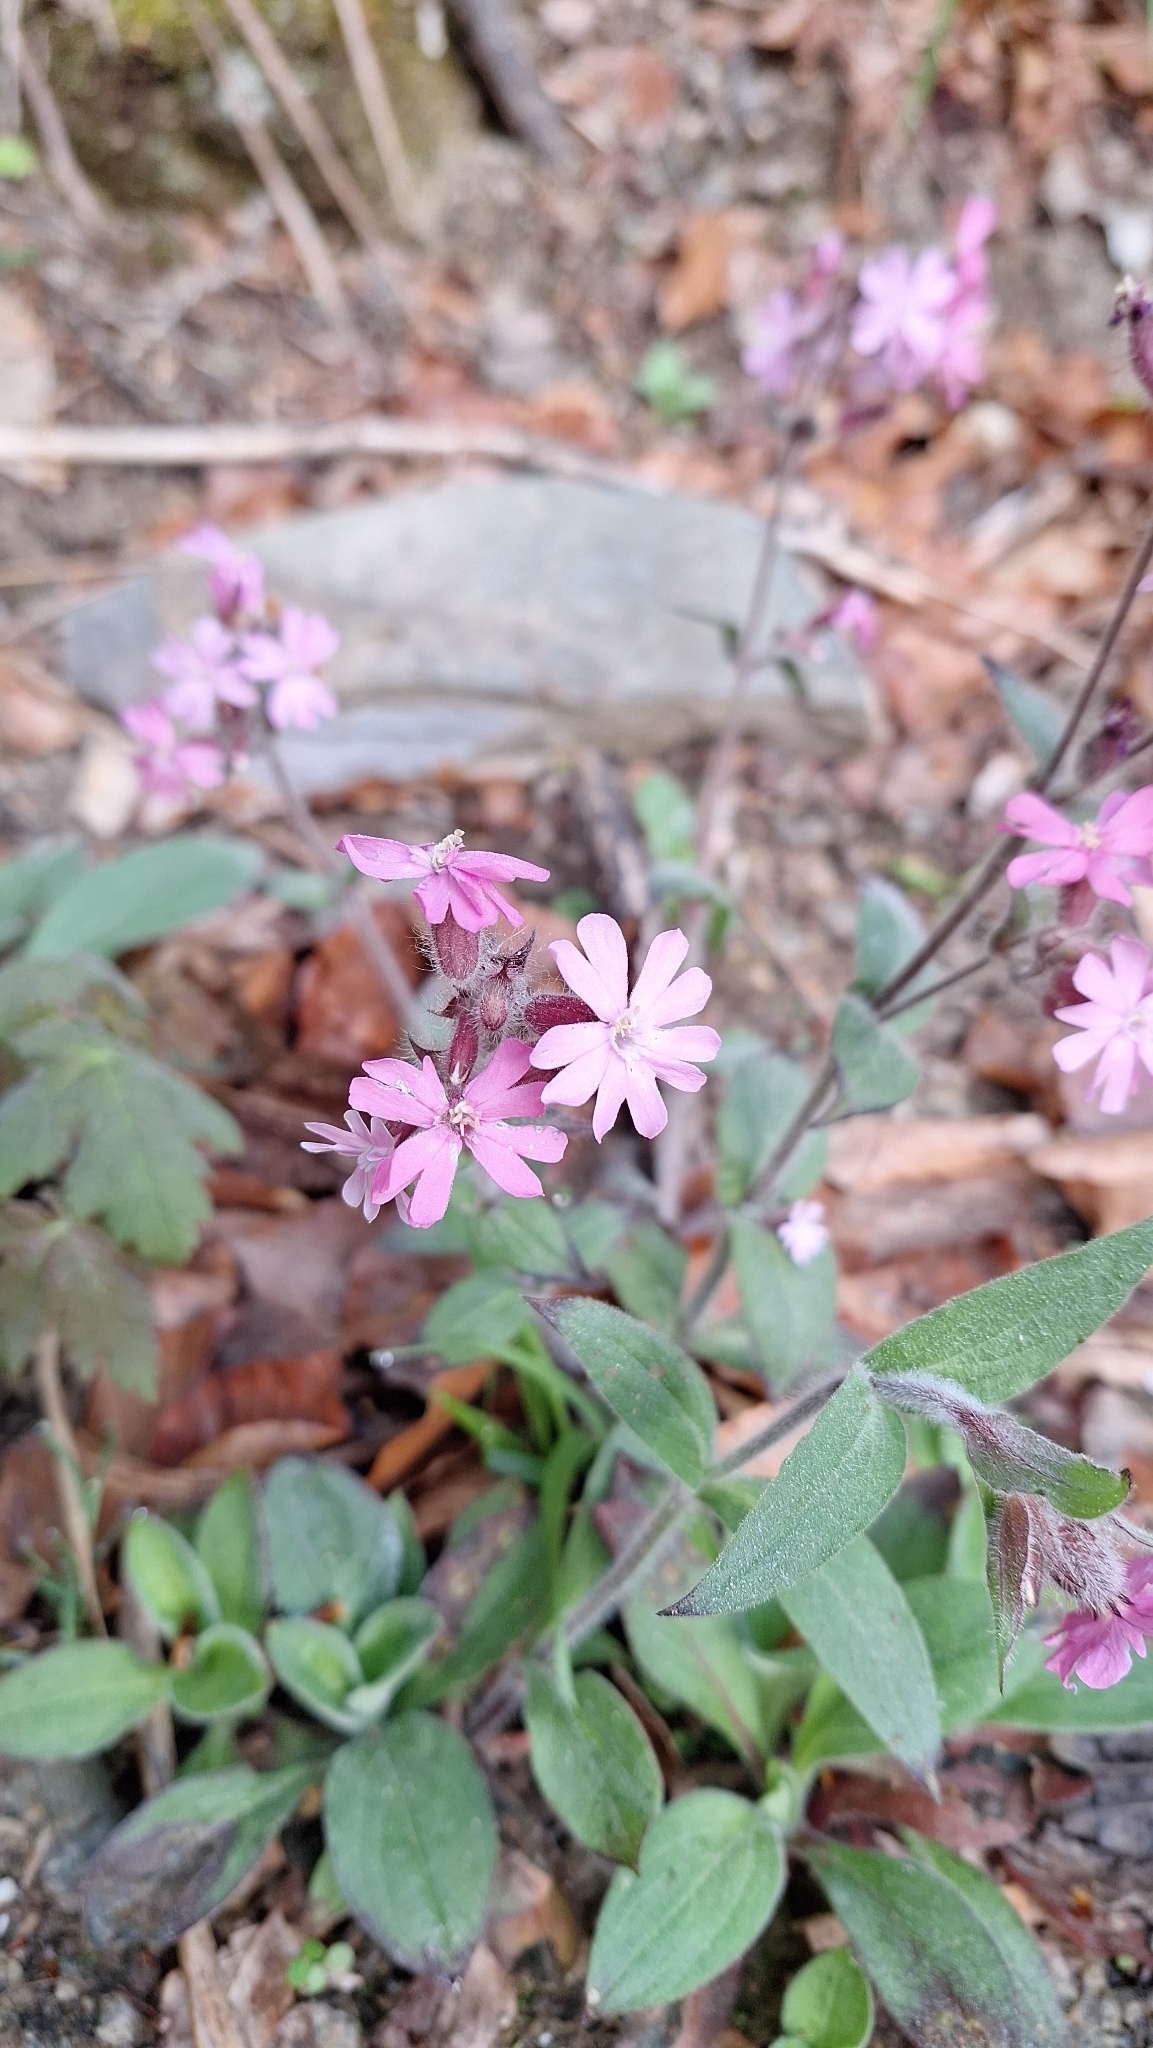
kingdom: Plantae
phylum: Tracheophyta
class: Magnoliopsida
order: Caryophyllales
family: Caryophyllaceae
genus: Silene
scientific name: Silene dioica
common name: Red campion
